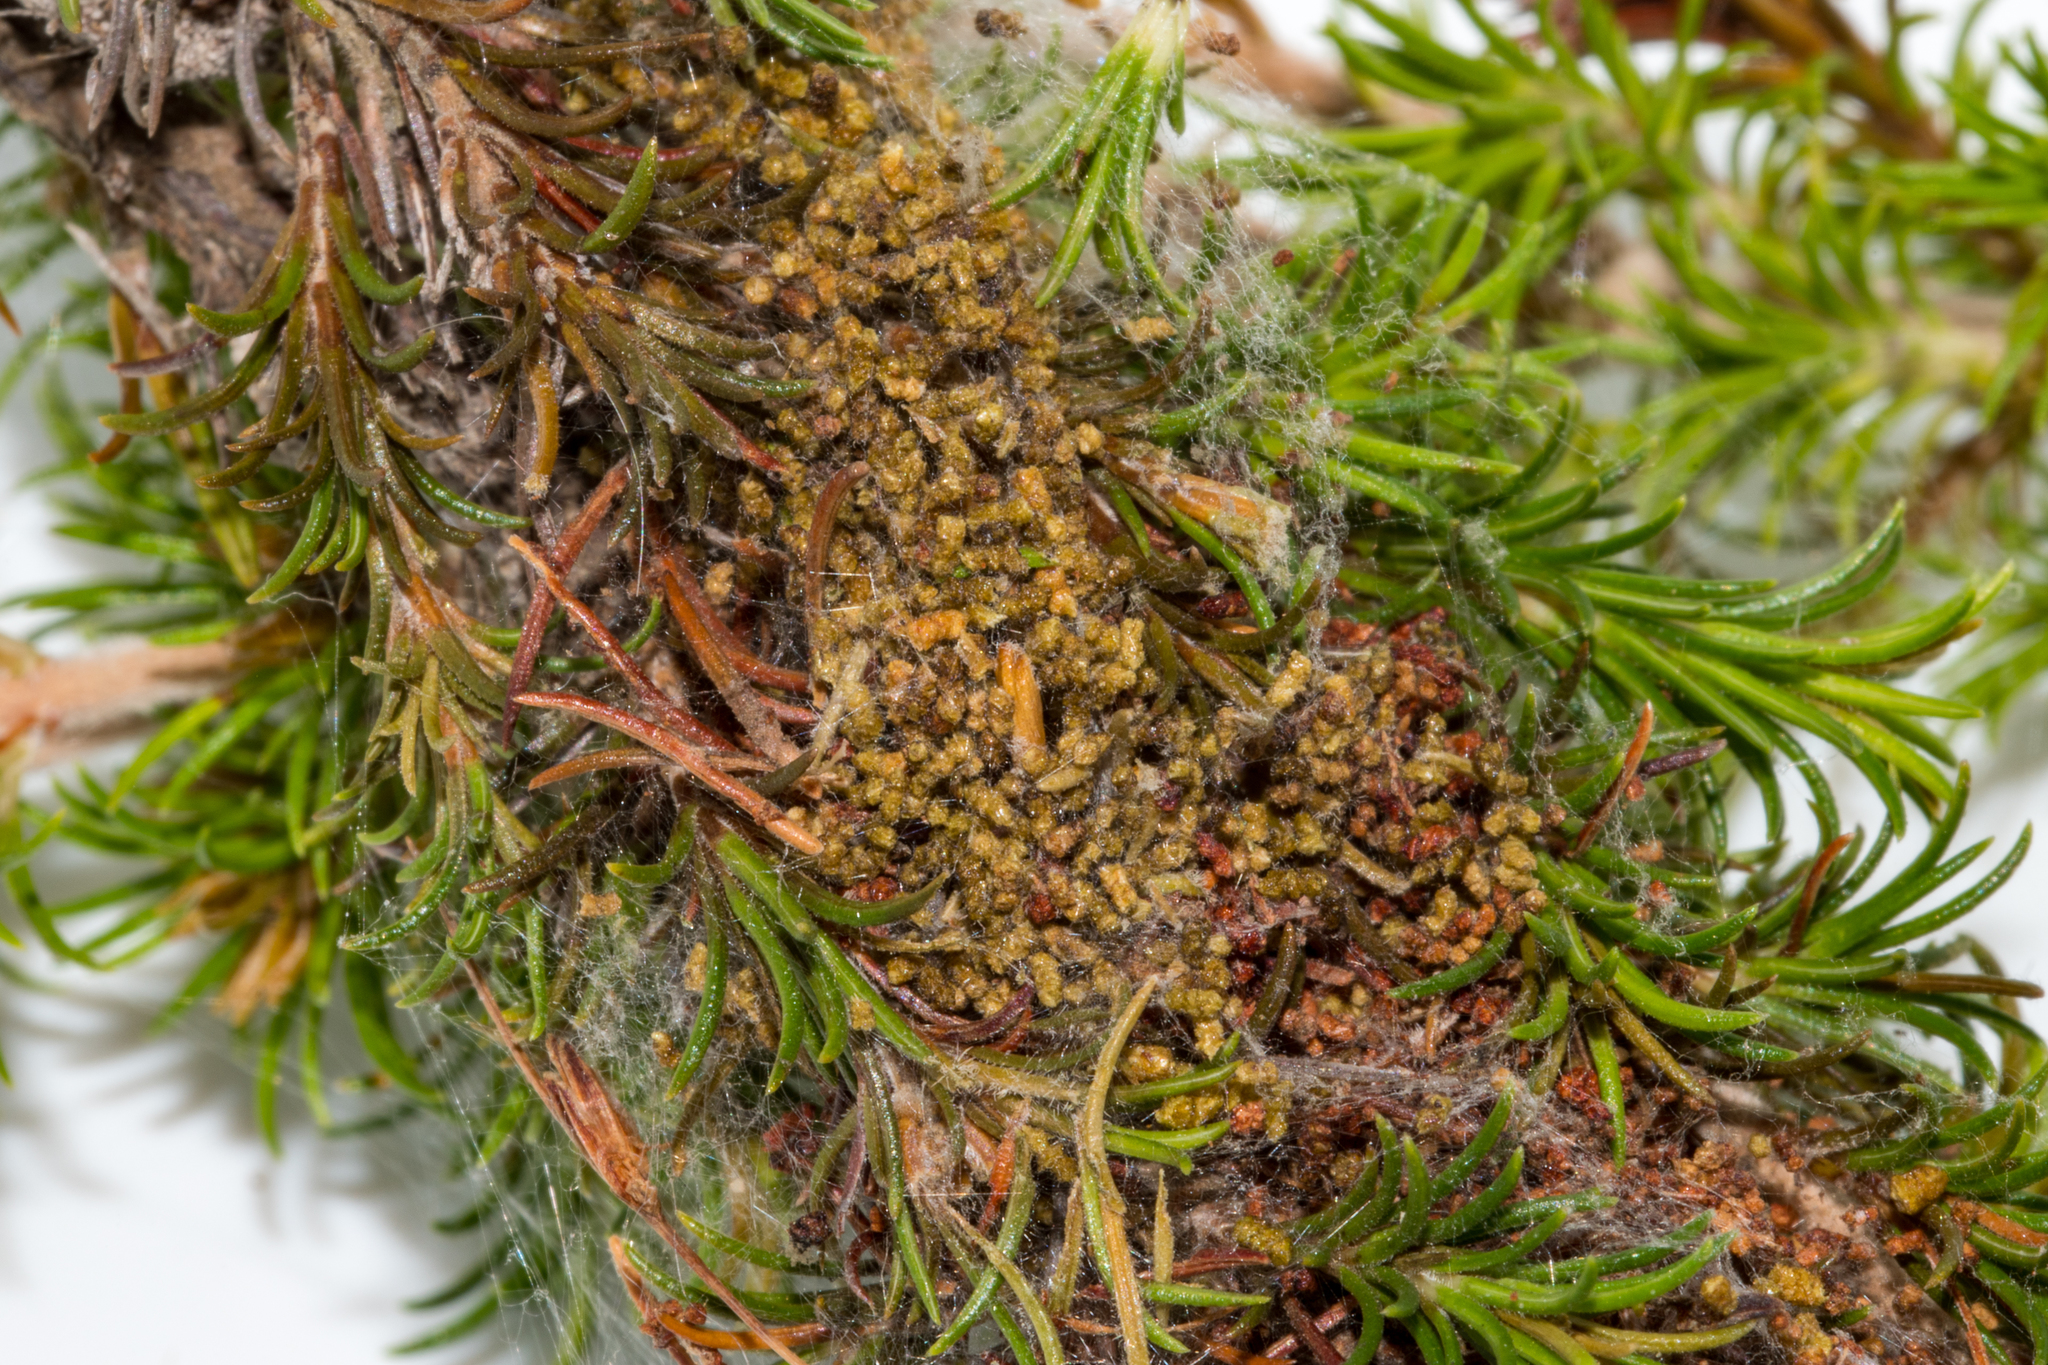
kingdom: Animalia
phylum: Arthropoda
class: Insecta
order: Lepidoptera
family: Pyralidae
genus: Triphassa
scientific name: Triphassa stalachtis
